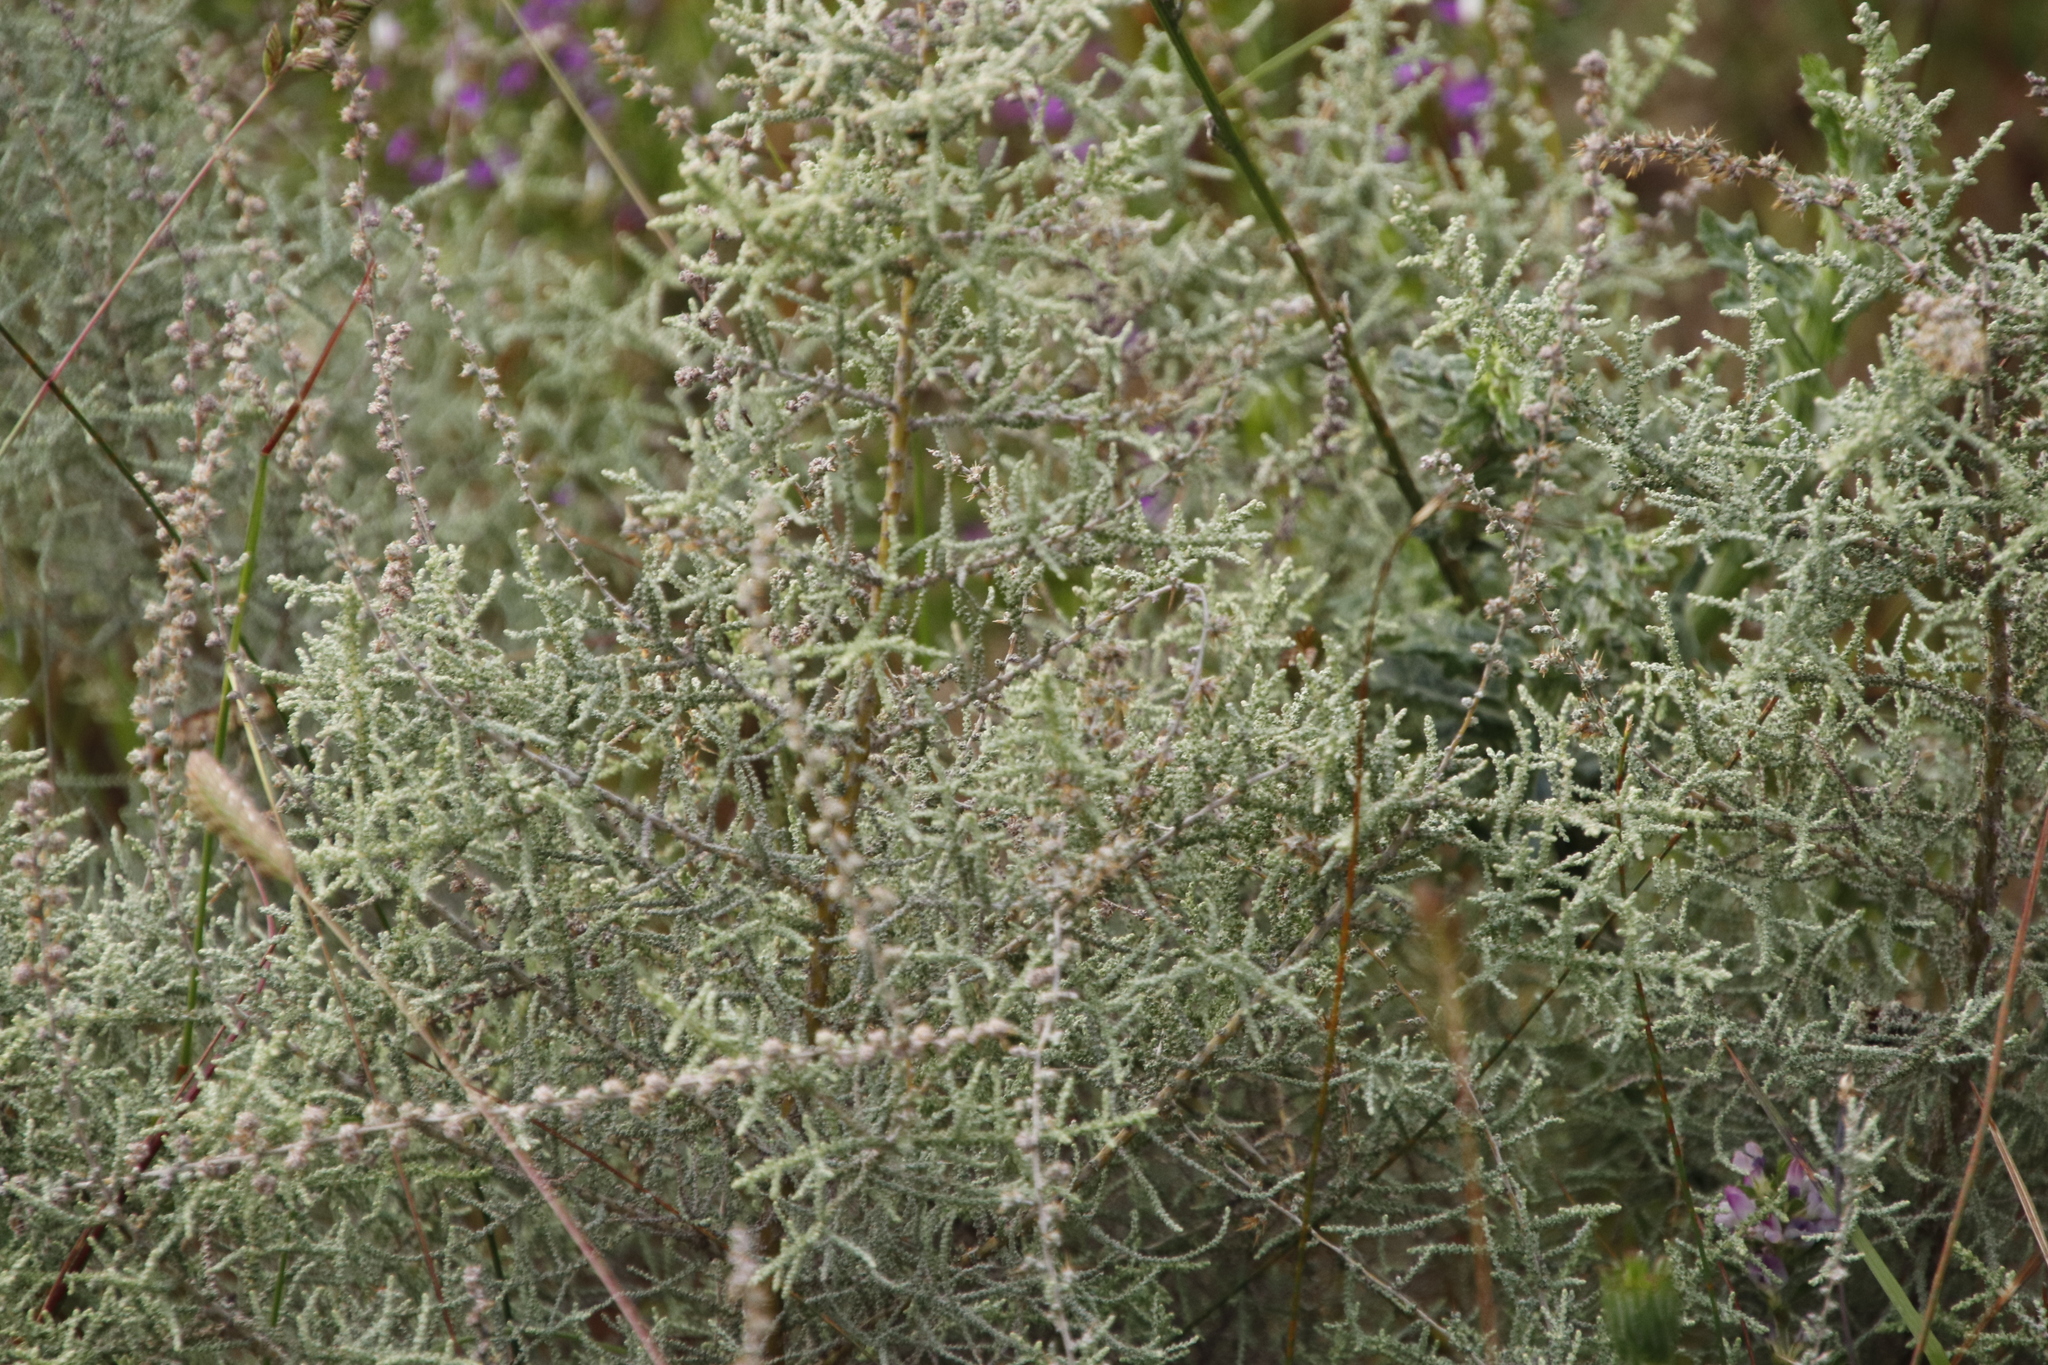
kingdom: Plantae
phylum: Tracheophyta
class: Magnoliopsida
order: Asterales
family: Asteraceae
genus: Seriphium
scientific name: Seriphium plumosum
